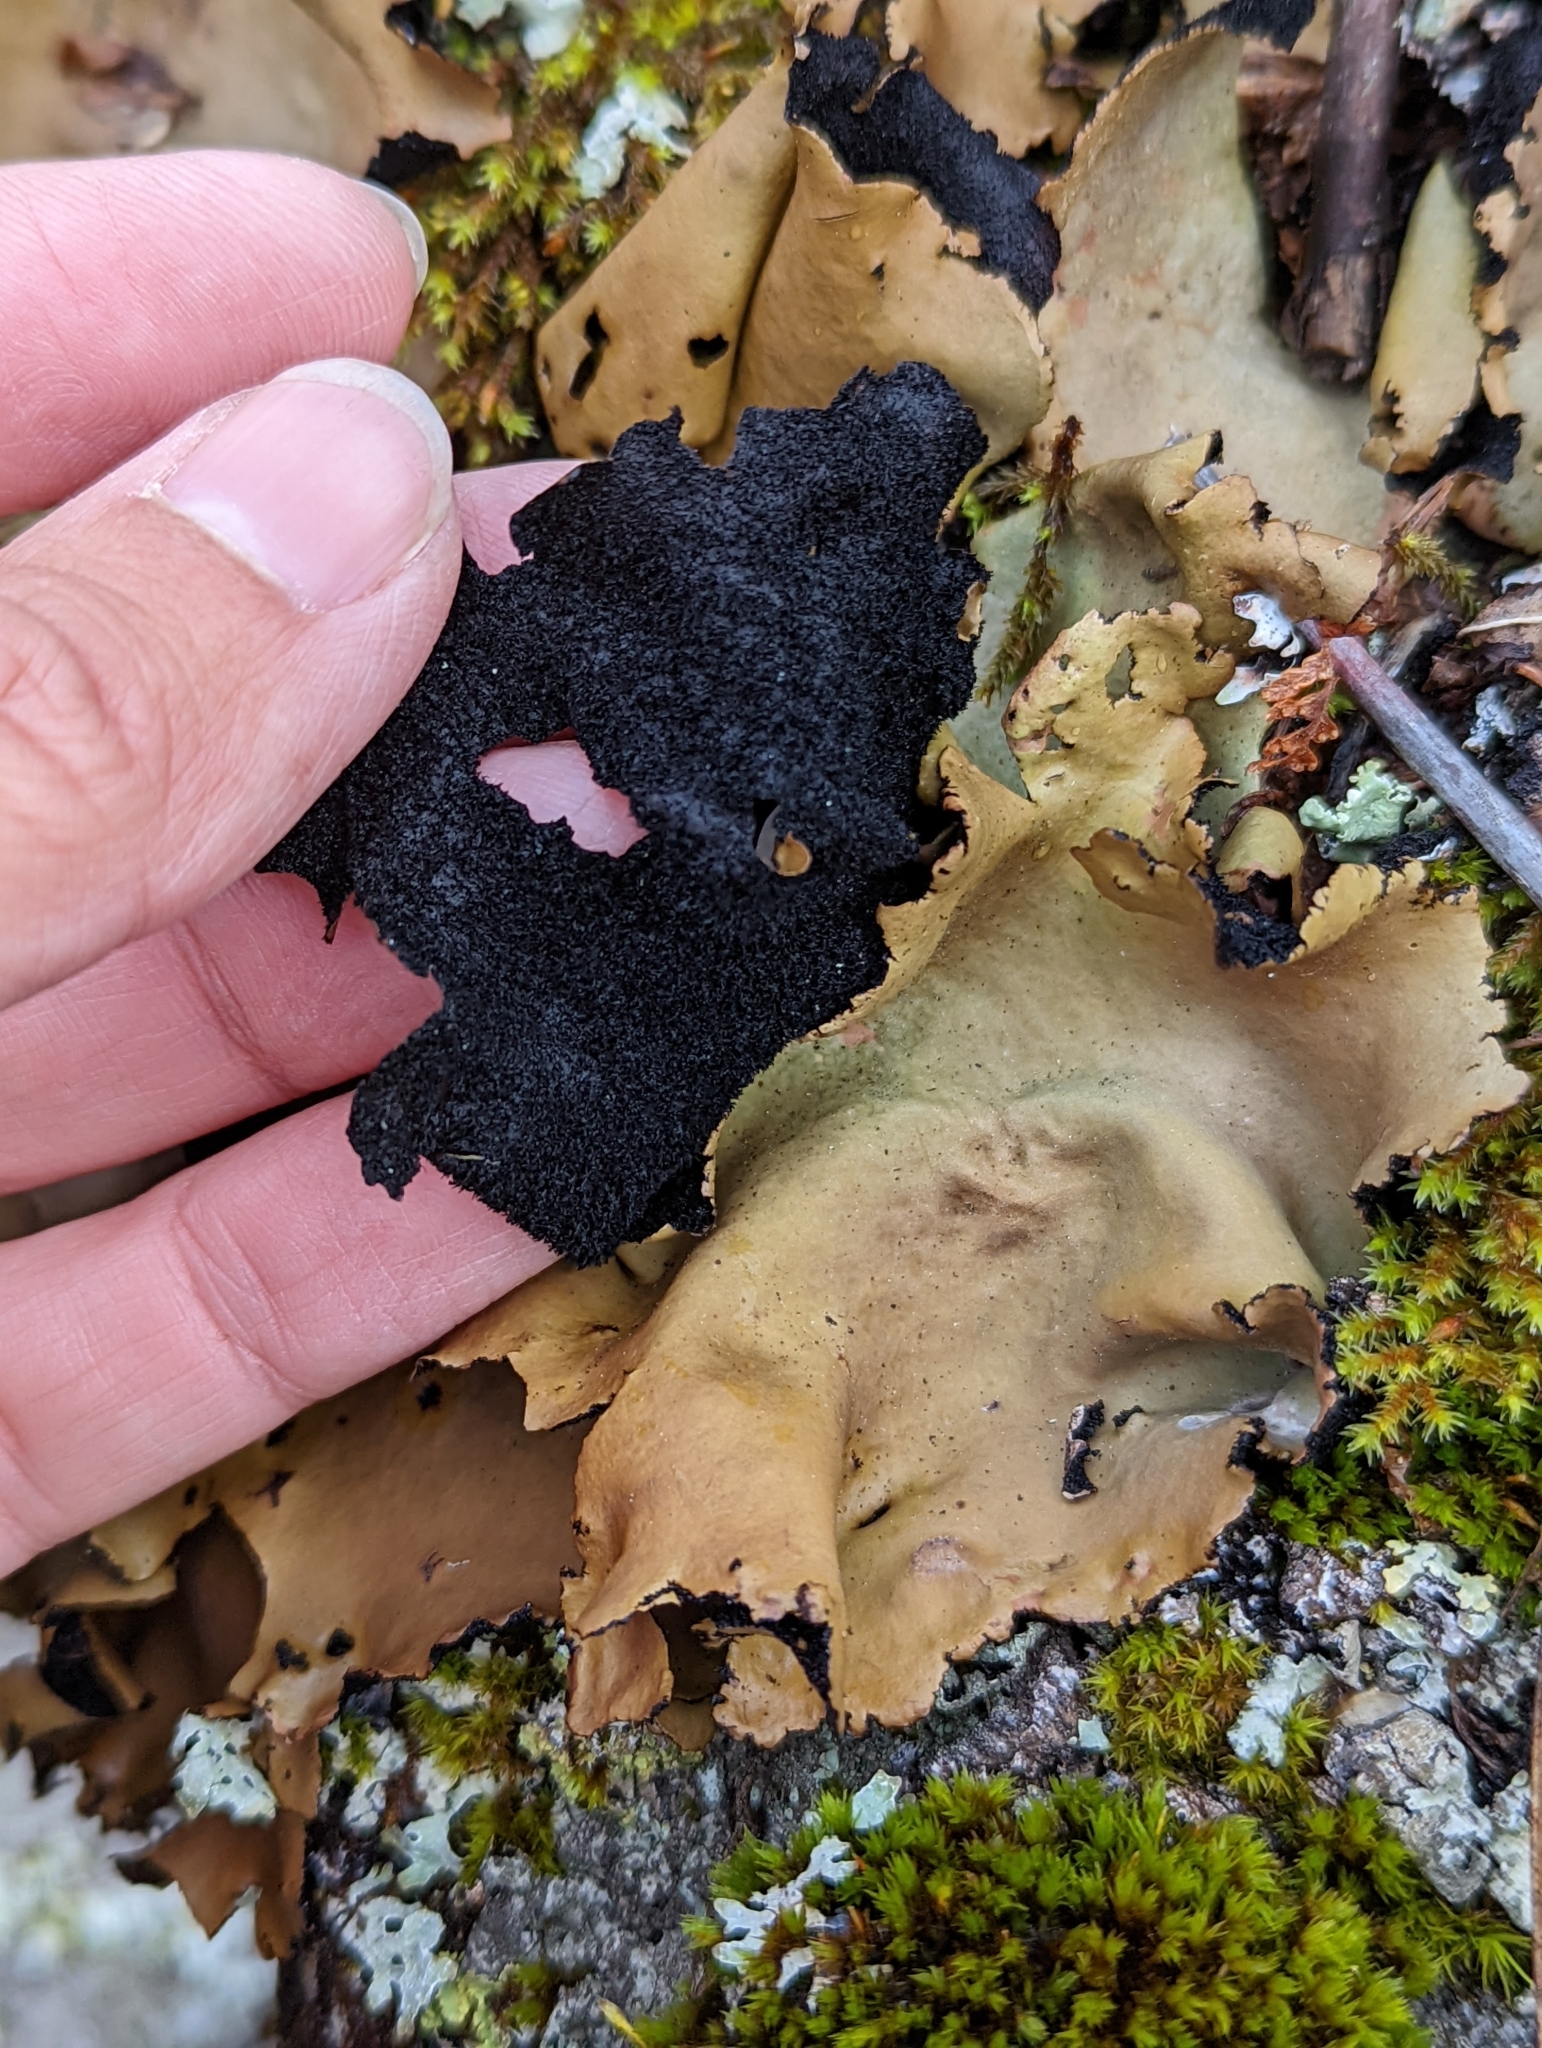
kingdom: Fungi
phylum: Ascomycota
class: Lecanoromycetes
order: Umbilicariales
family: Umbilicariaceae
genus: Umbilicaria
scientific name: Umbilicaria mammulata
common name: Smooth rock tripe
